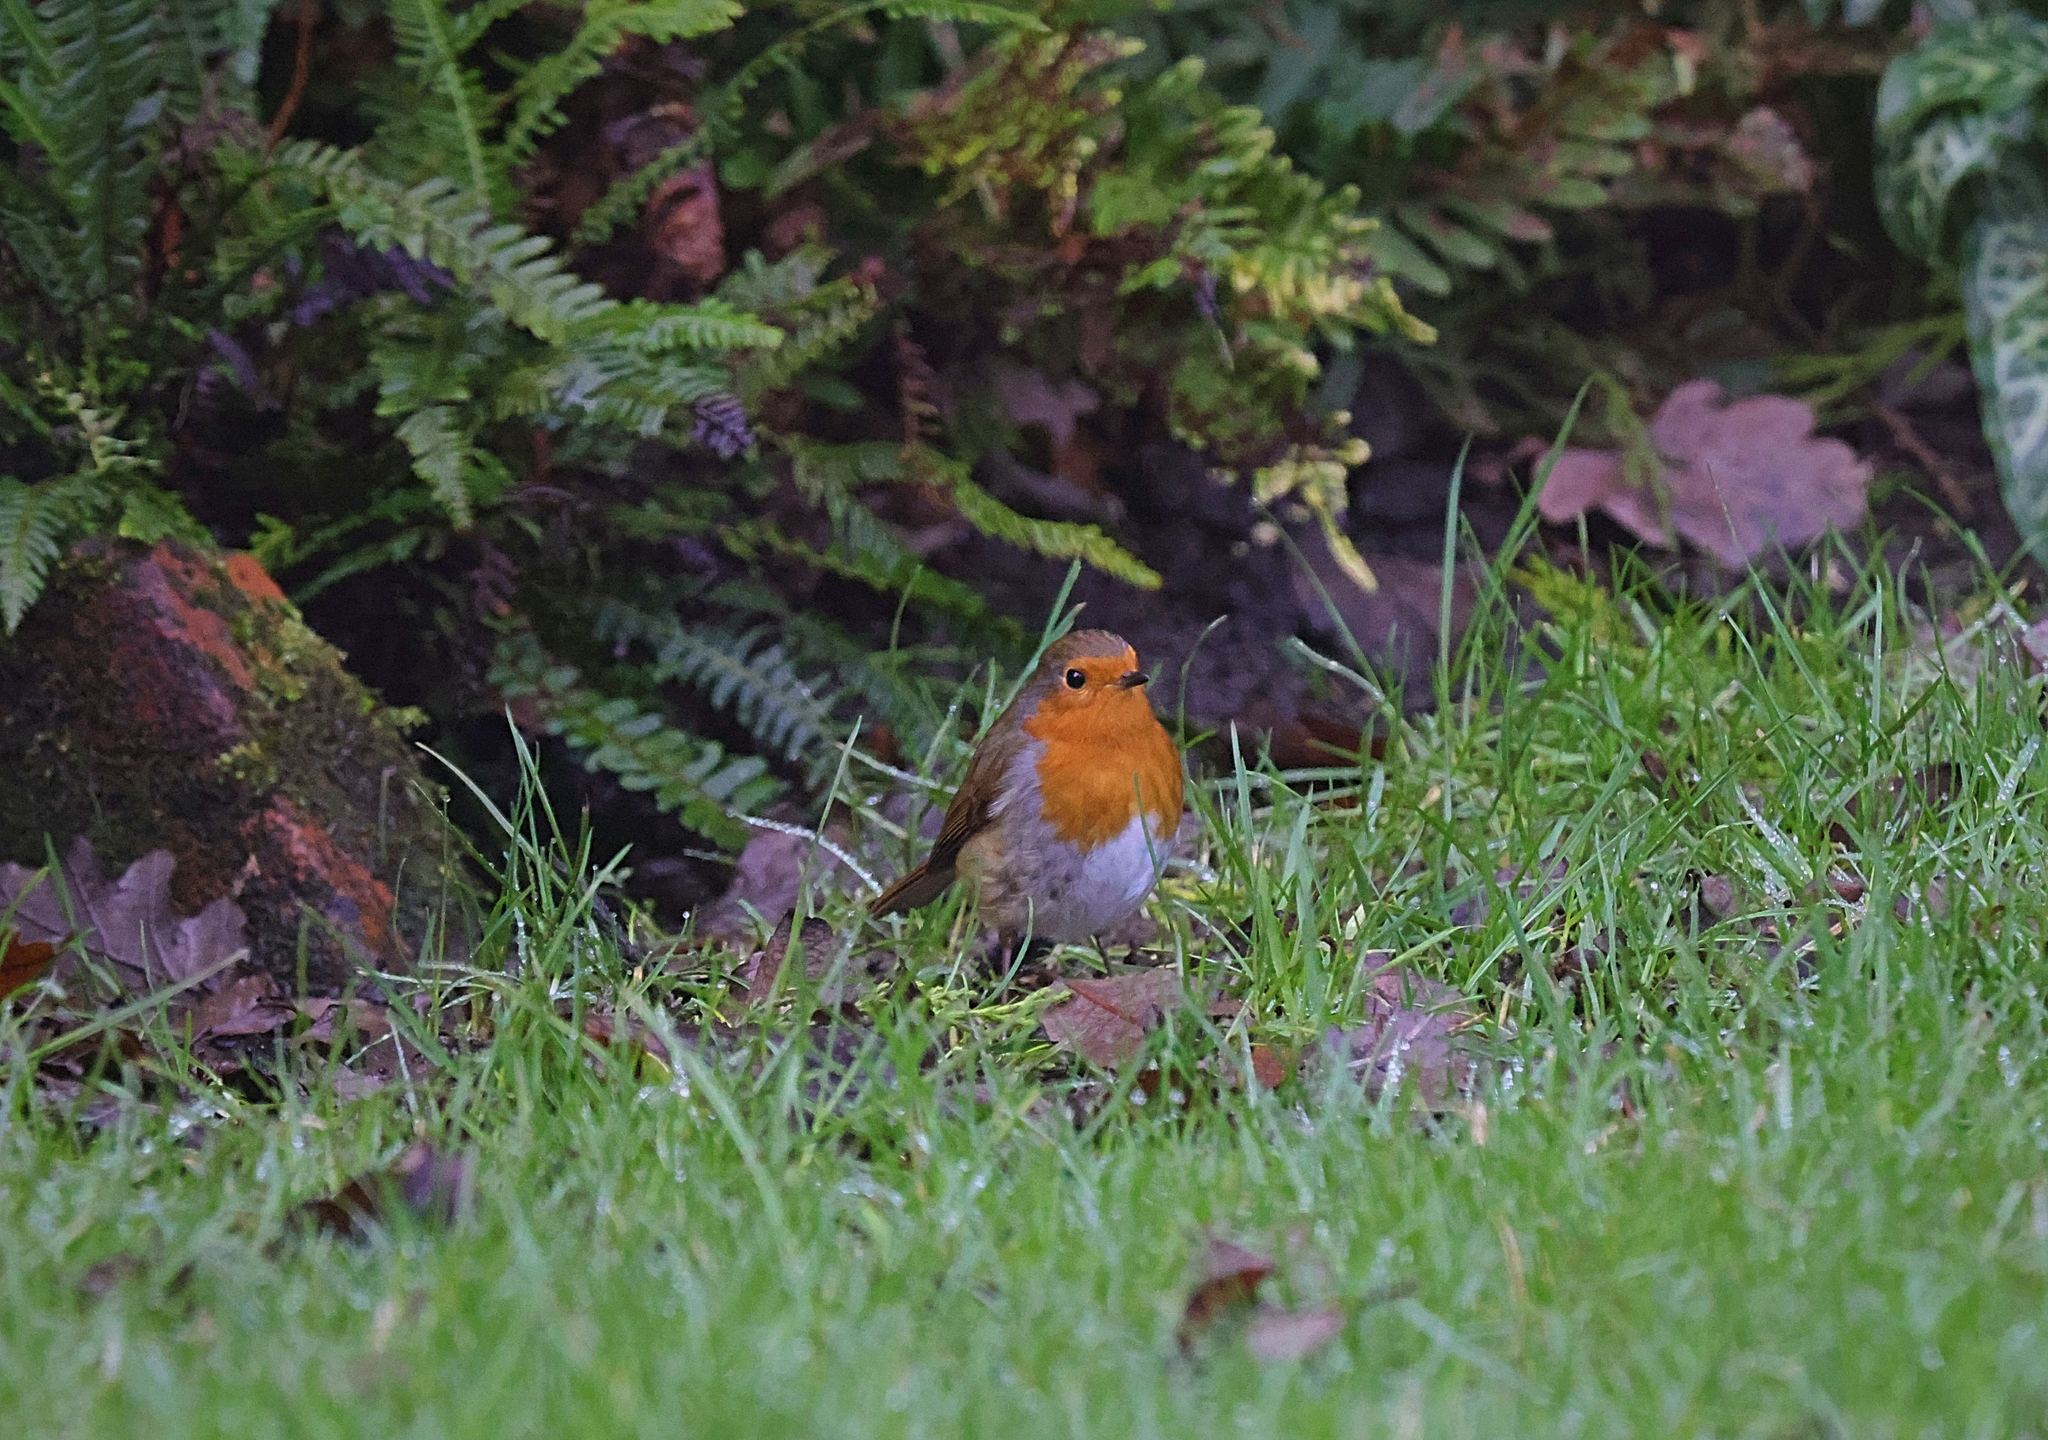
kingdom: Animalia
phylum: Chordata
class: Aves
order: Passeriformes
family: Muscicapidae
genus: Erithacus
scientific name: Erithacus rubecula
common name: European robin
